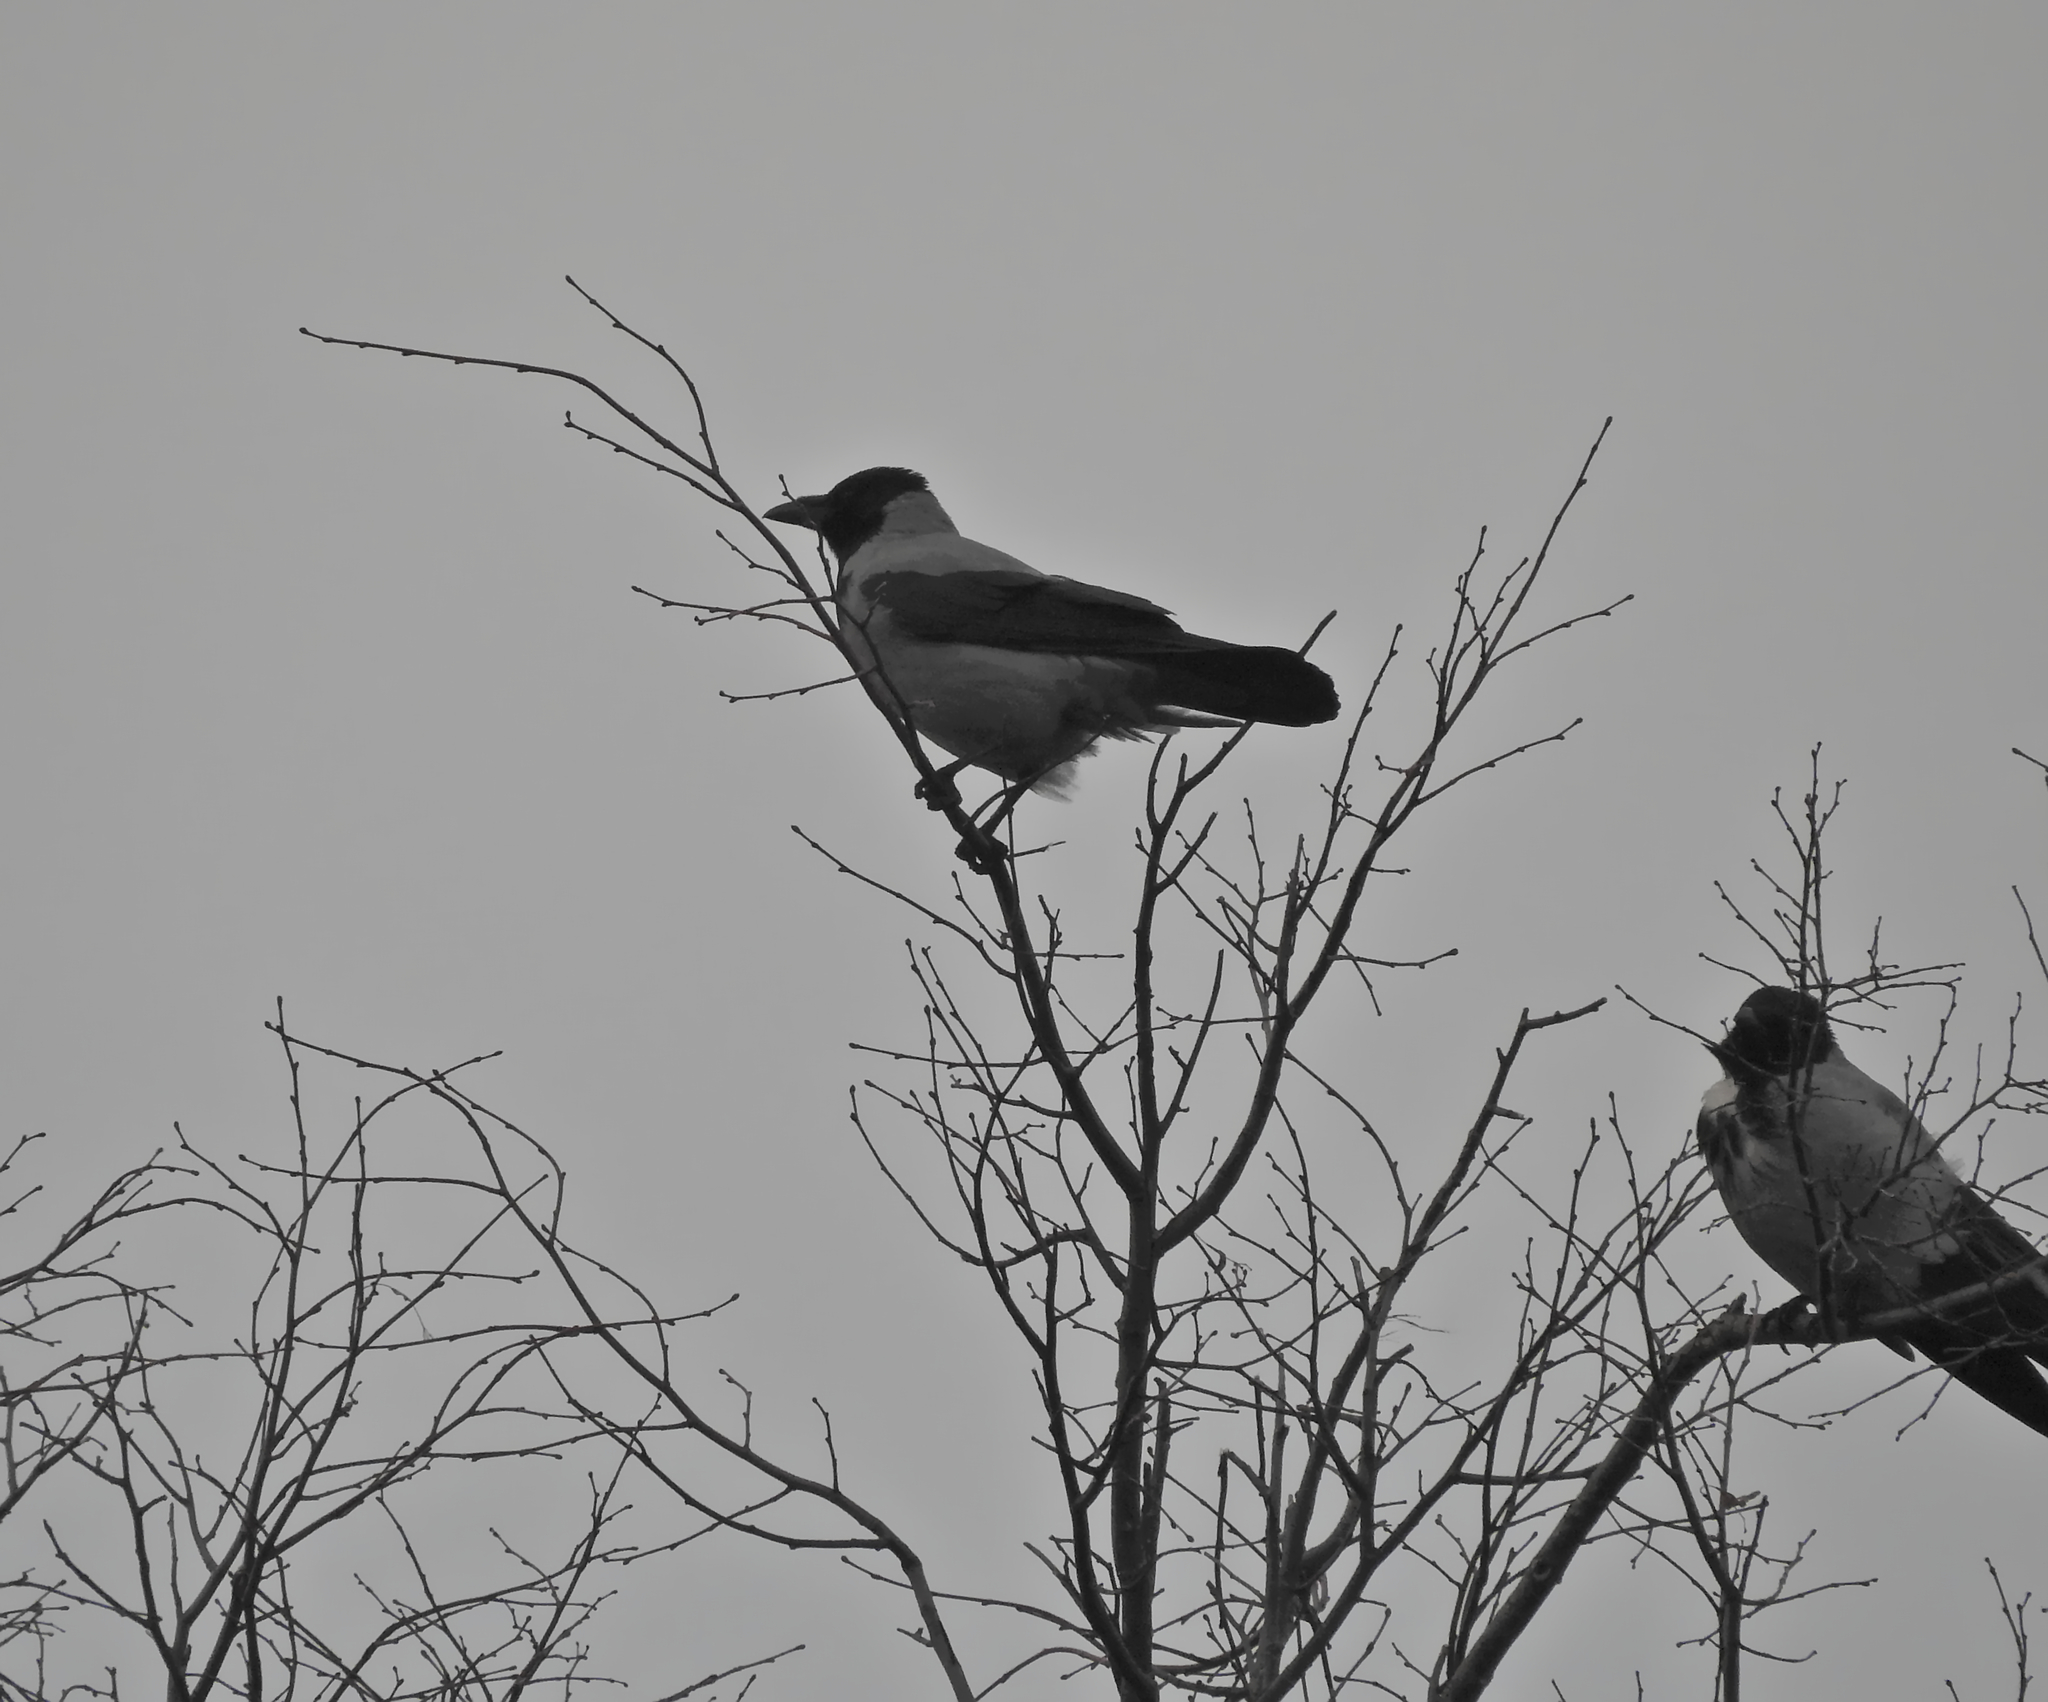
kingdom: Animalia
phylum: Chordata
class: Aves
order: Passeriformes
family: Corvidae
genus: Corvus
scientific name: Corvus cornix
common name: Hooded crow
